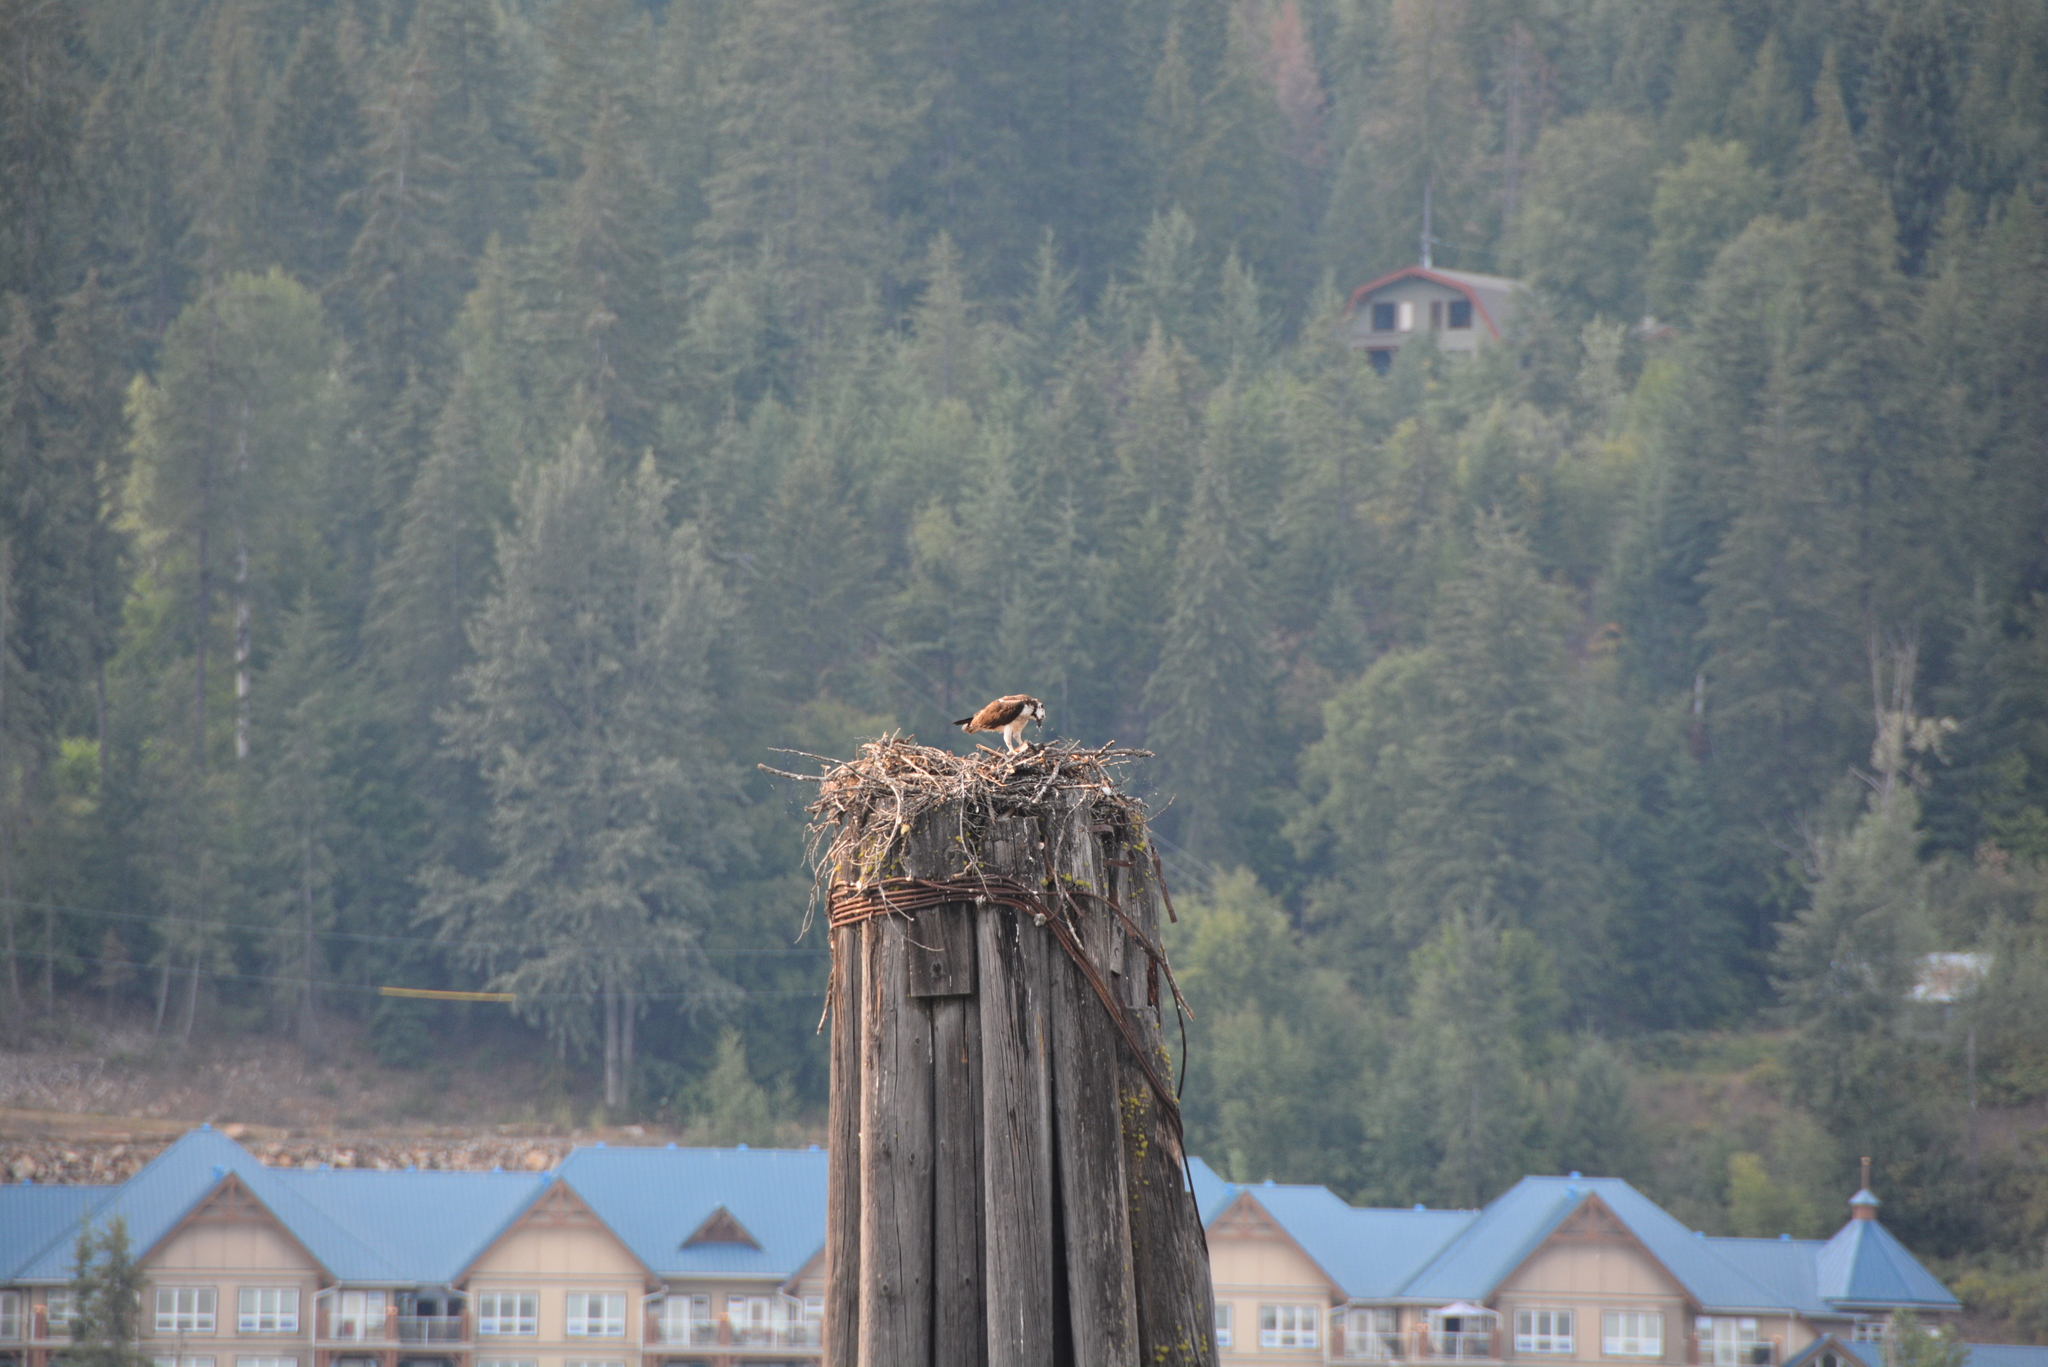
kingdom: Animalia
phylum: Chordata
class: Aves
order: Accipitriformes
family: Pandionidae
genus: Pandion
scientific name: Pandion haliaetus
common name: Osprey
